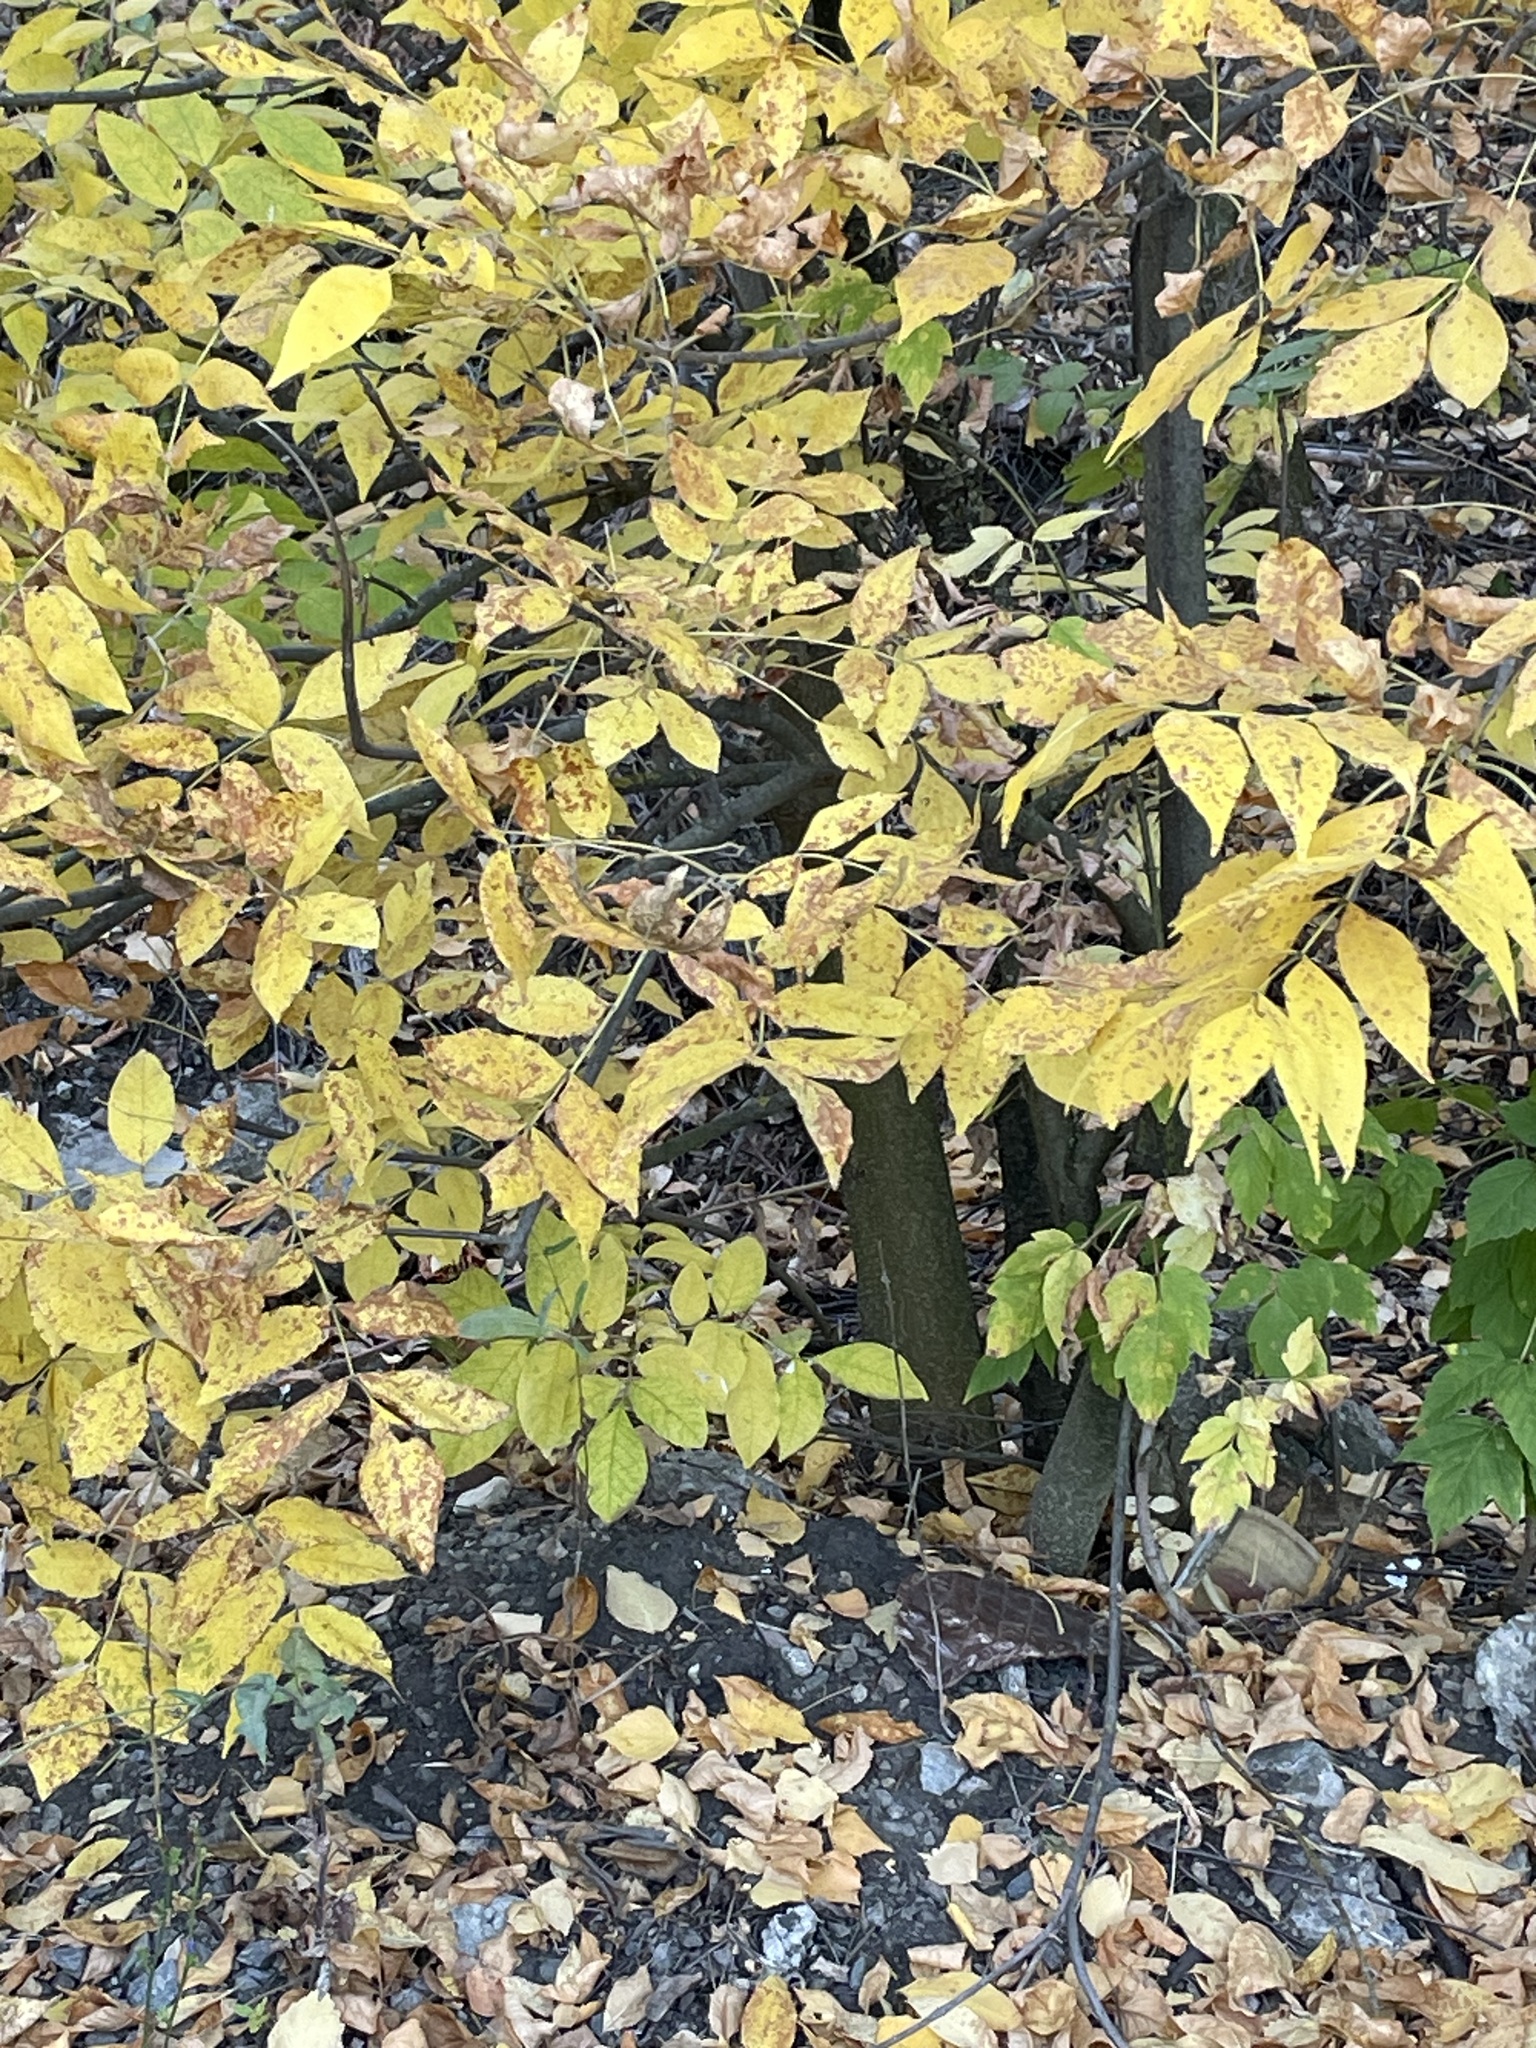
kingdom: Plantae
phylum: Tracheophyta
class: Magnoliopsida
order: Lamiales
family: Oleaceae
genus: Fraxinus
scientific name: Fraxinus pennsylvanica
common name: Green ash
